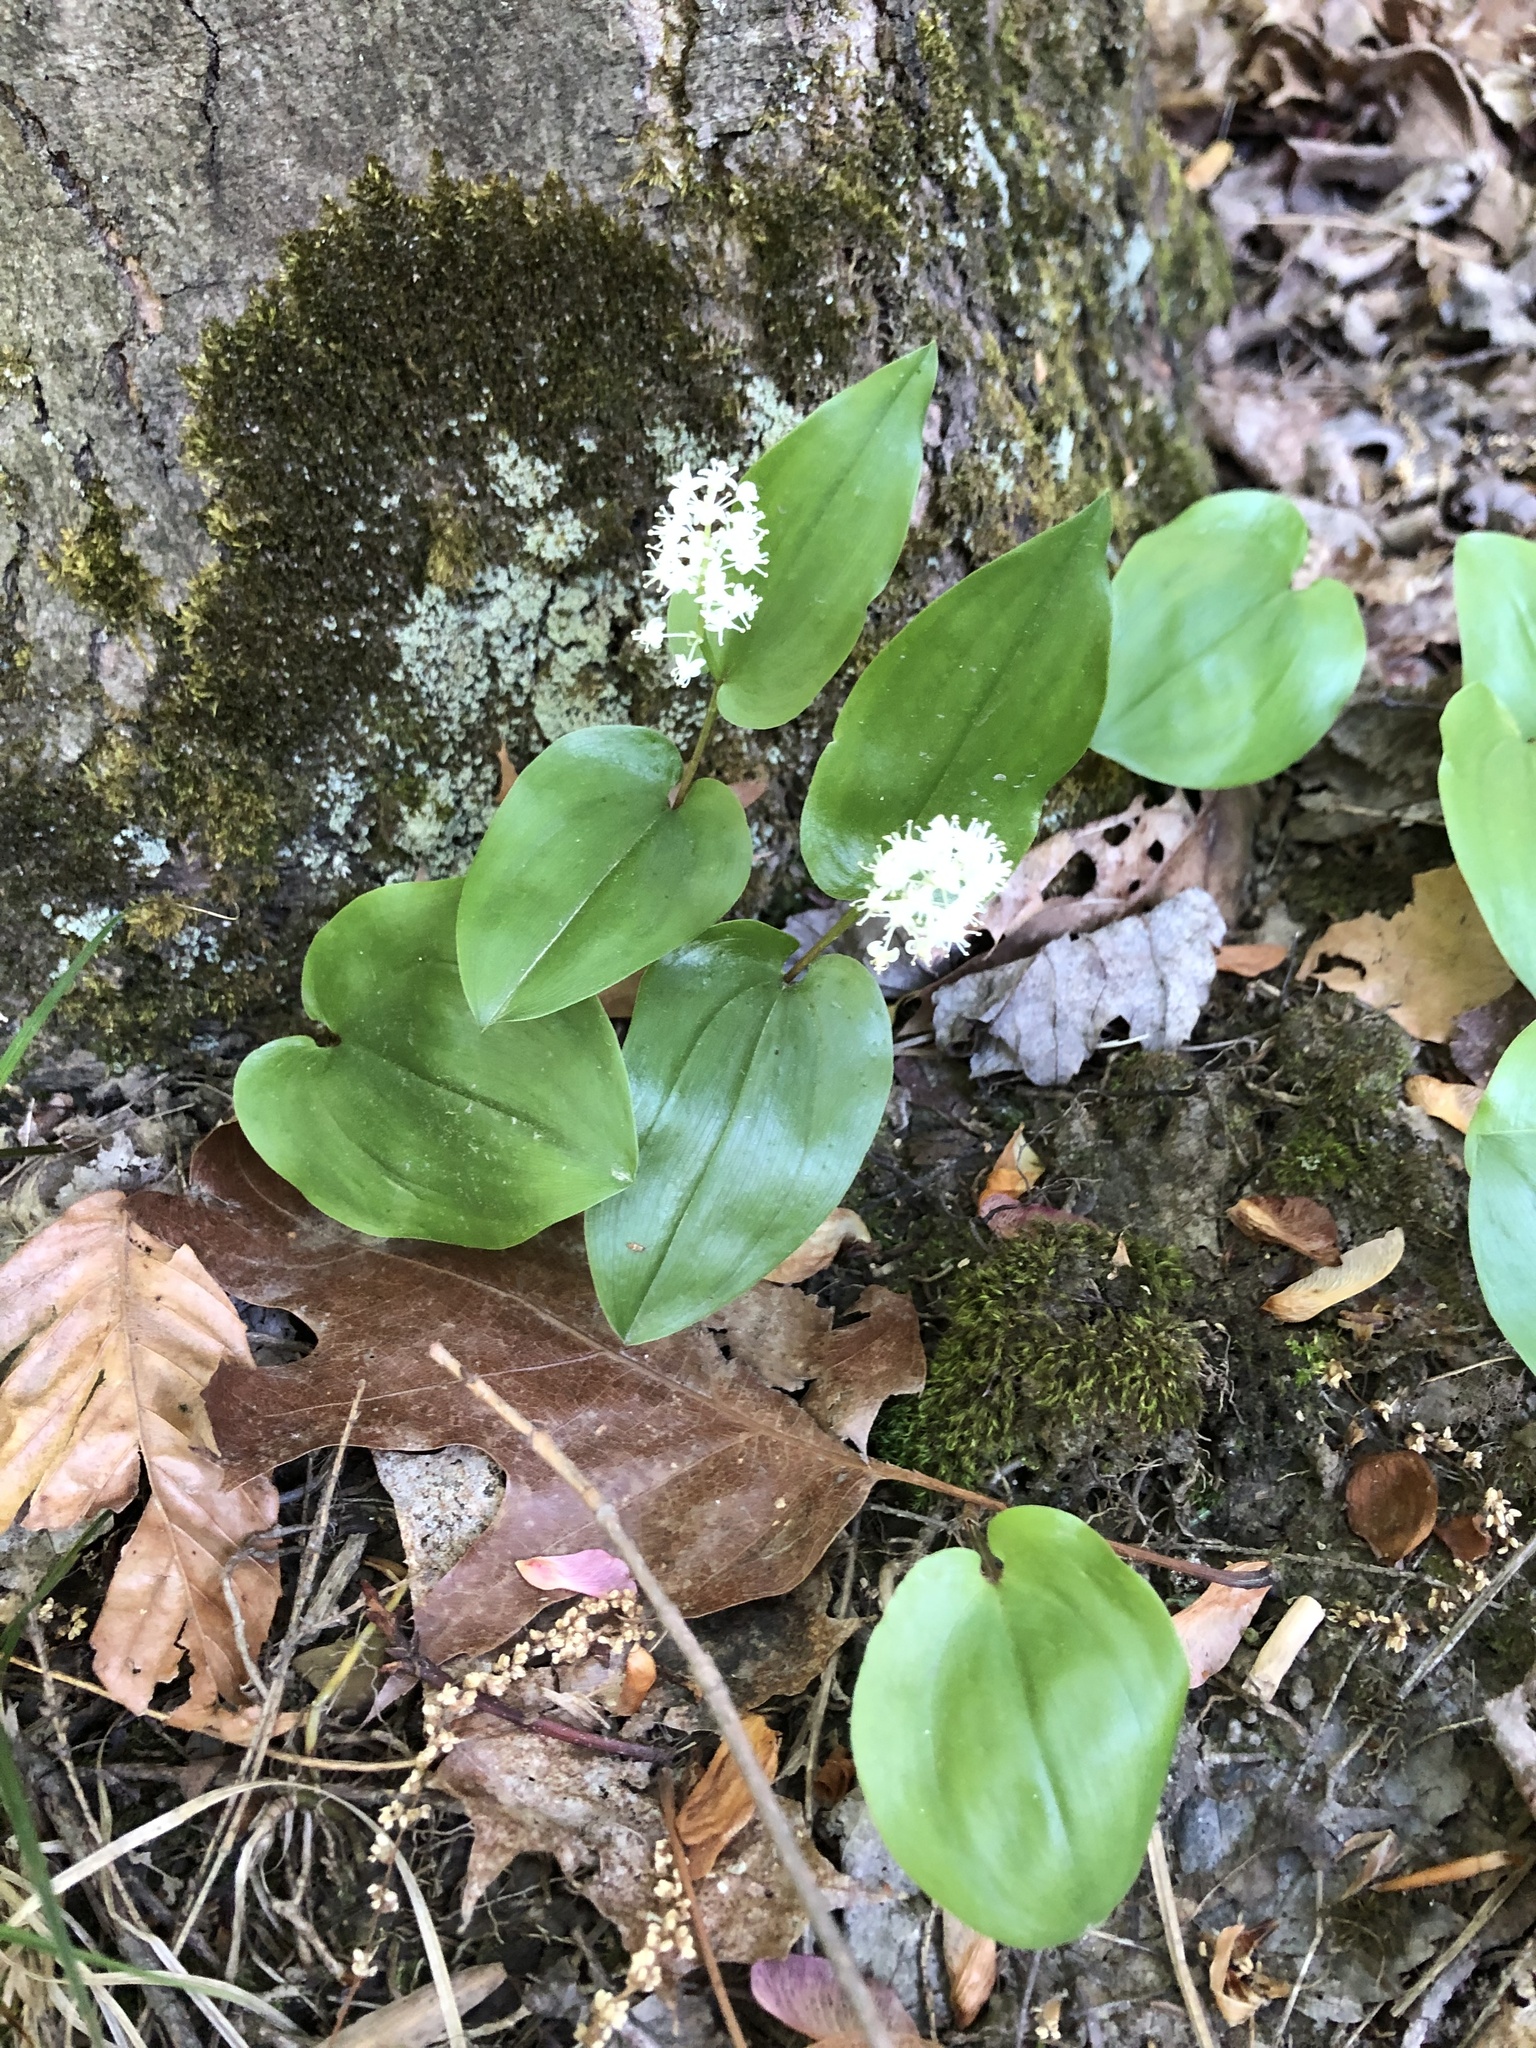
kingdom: Plantae
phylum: Tracheophyta
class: Liliopsida
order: Asparagales
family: Asparagaceae
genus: Maianthemum
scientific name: Maianthemum canadense
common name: False lily-of-the-valley
